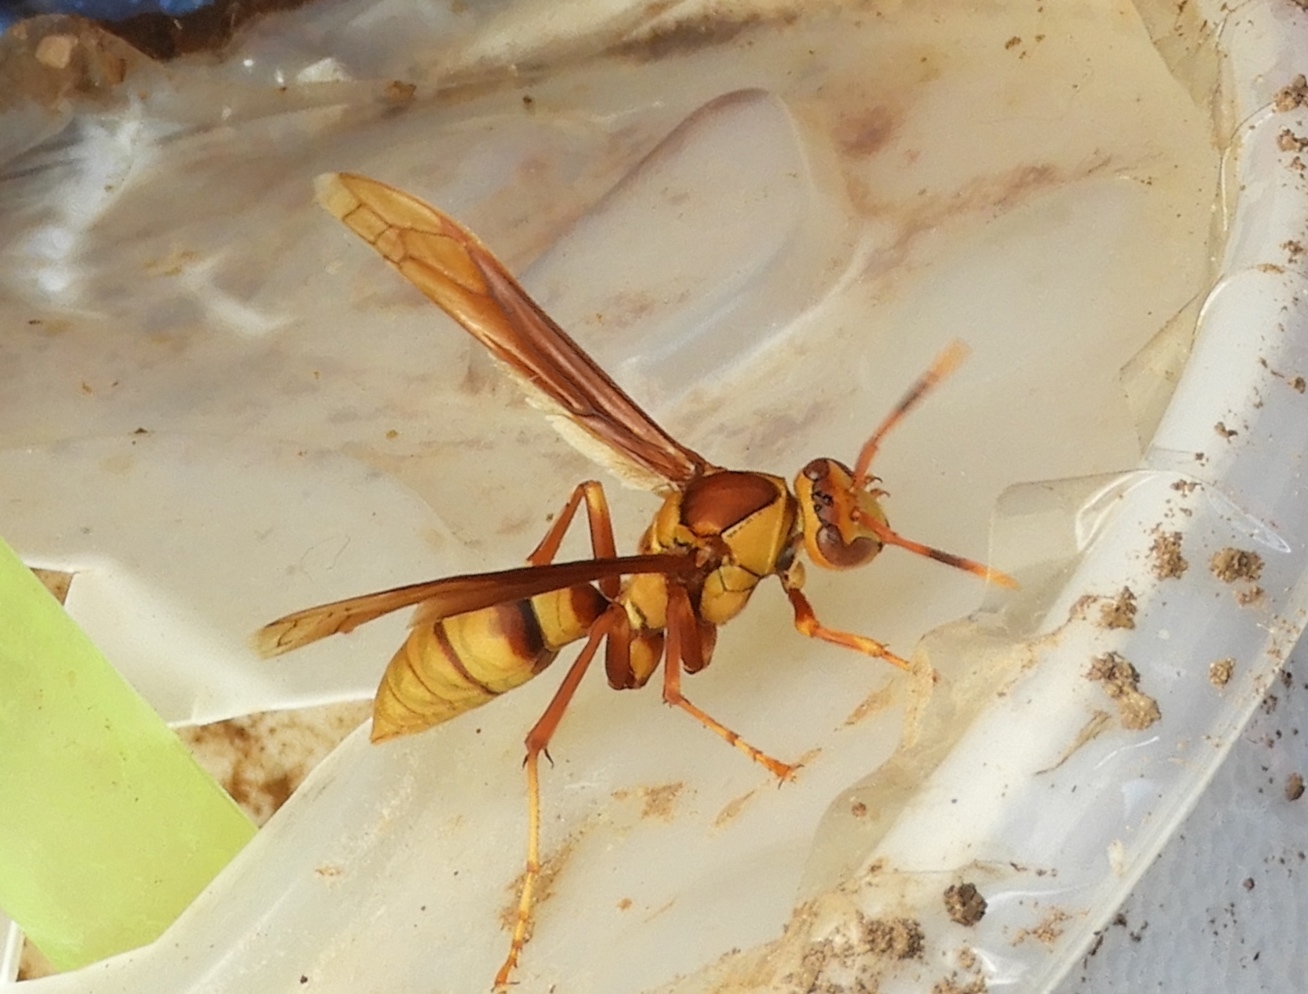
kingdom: Animalia
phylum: Arthropoda
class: Insecta
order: Hymenoptera
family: Eumenidae
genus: Polistes
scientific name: Polistes major
